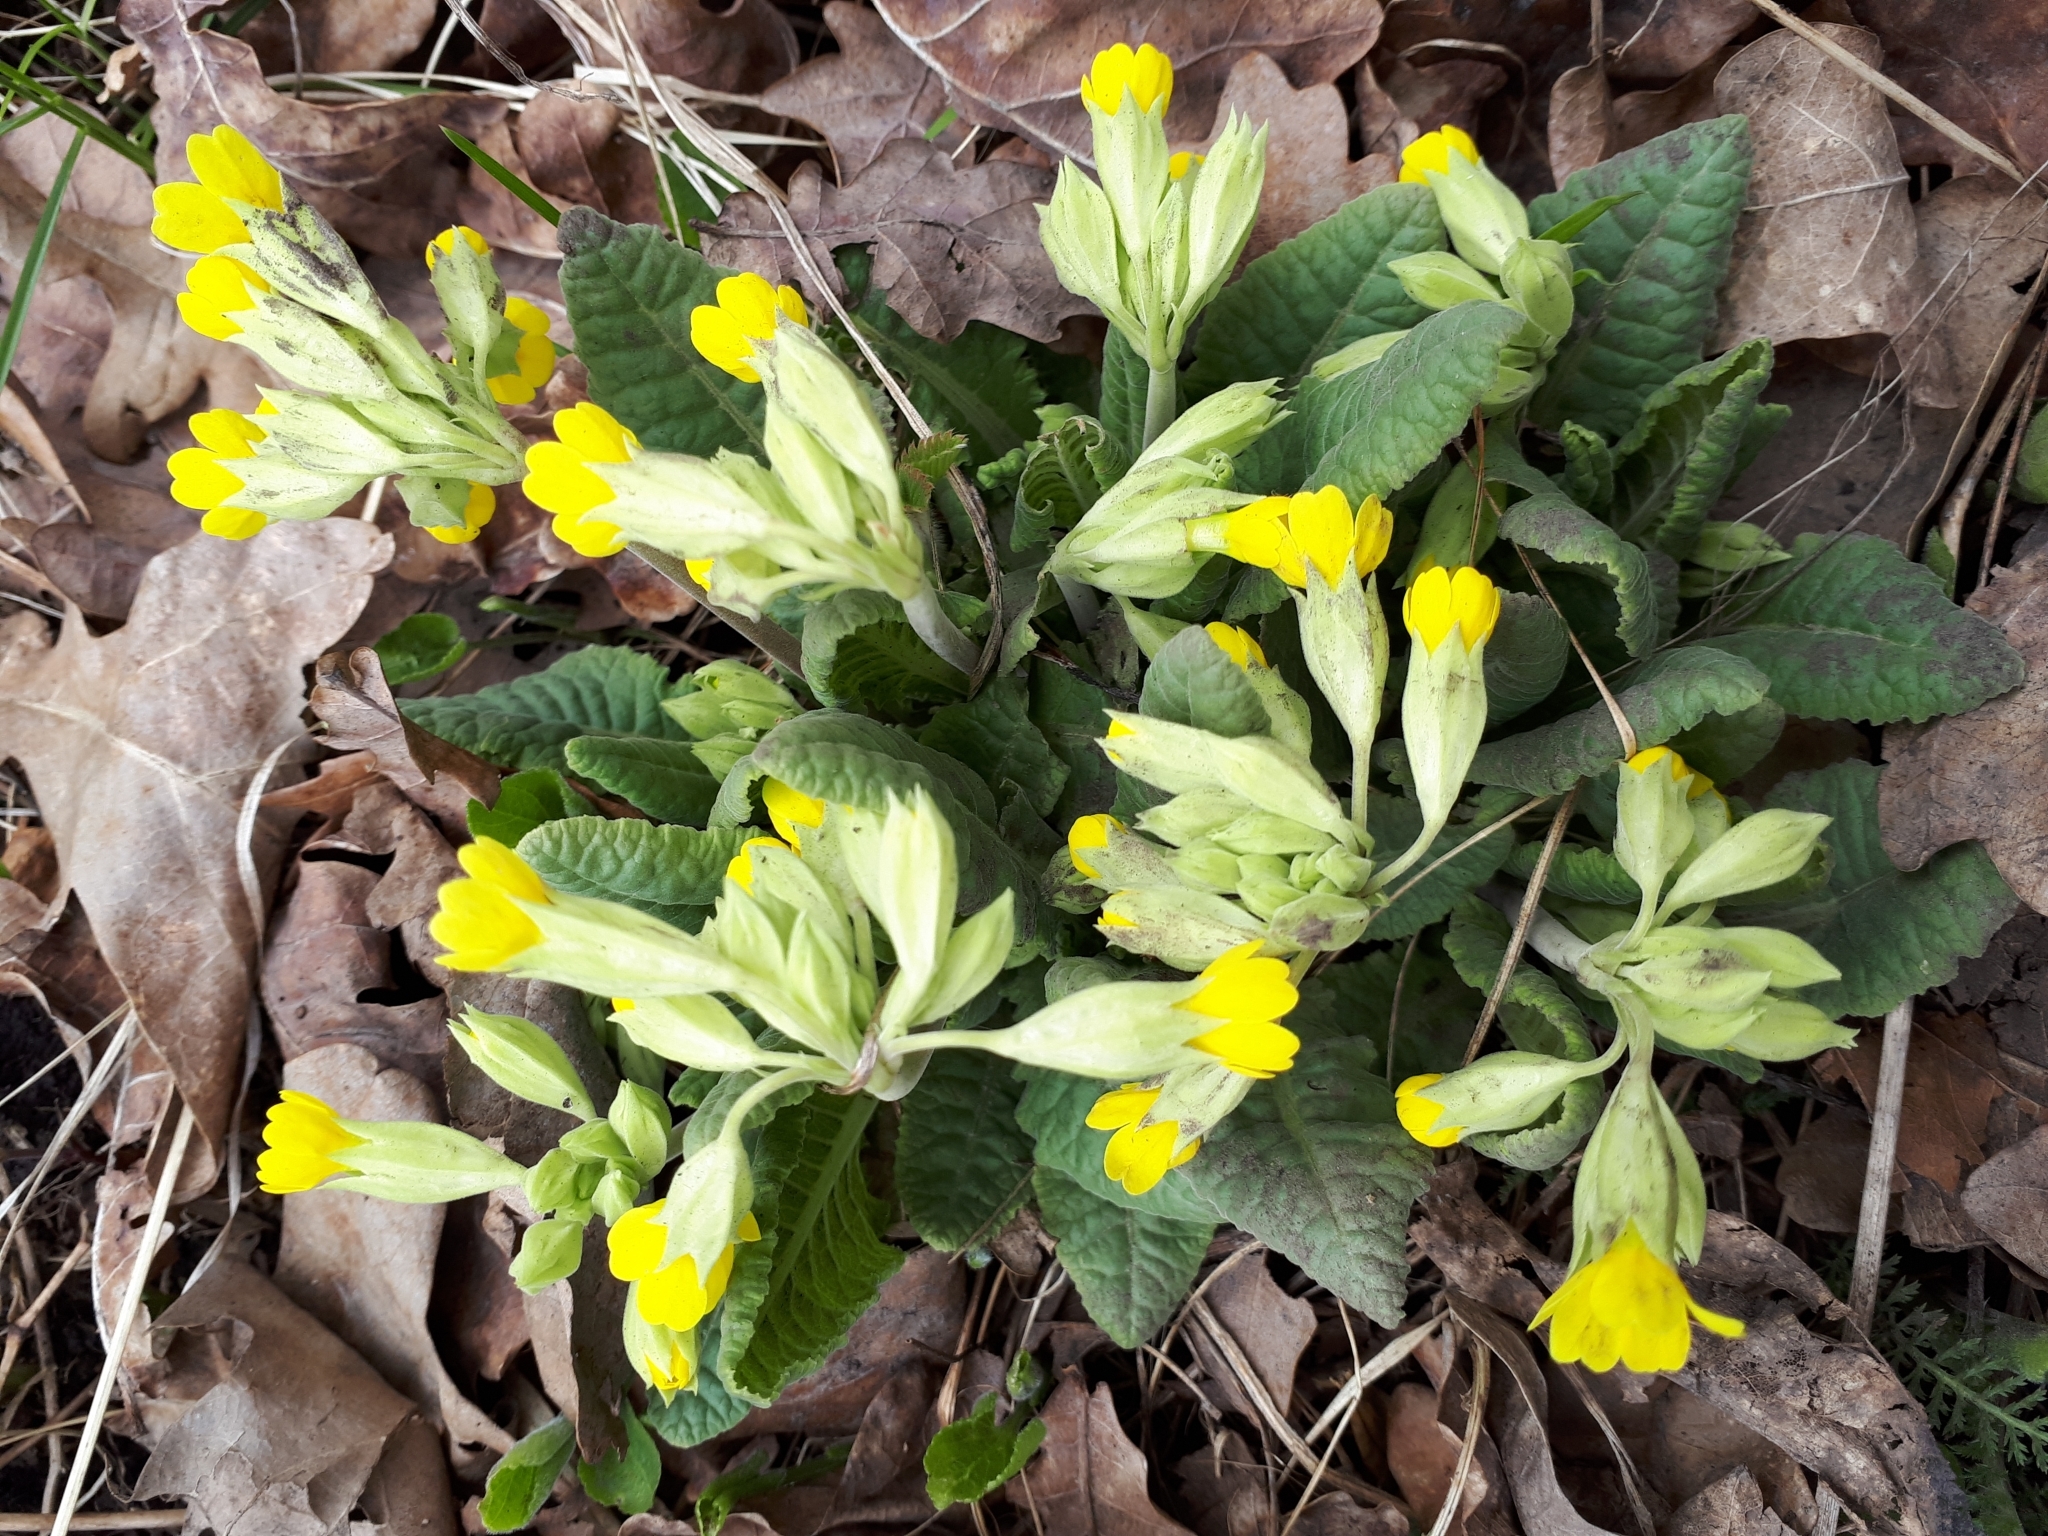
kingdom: Plantae
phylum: Tracheophyta
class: Magnoliopsida
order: Ericales
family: Primulaceae
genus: Primula
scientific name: Primula veris
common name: Cowslip
